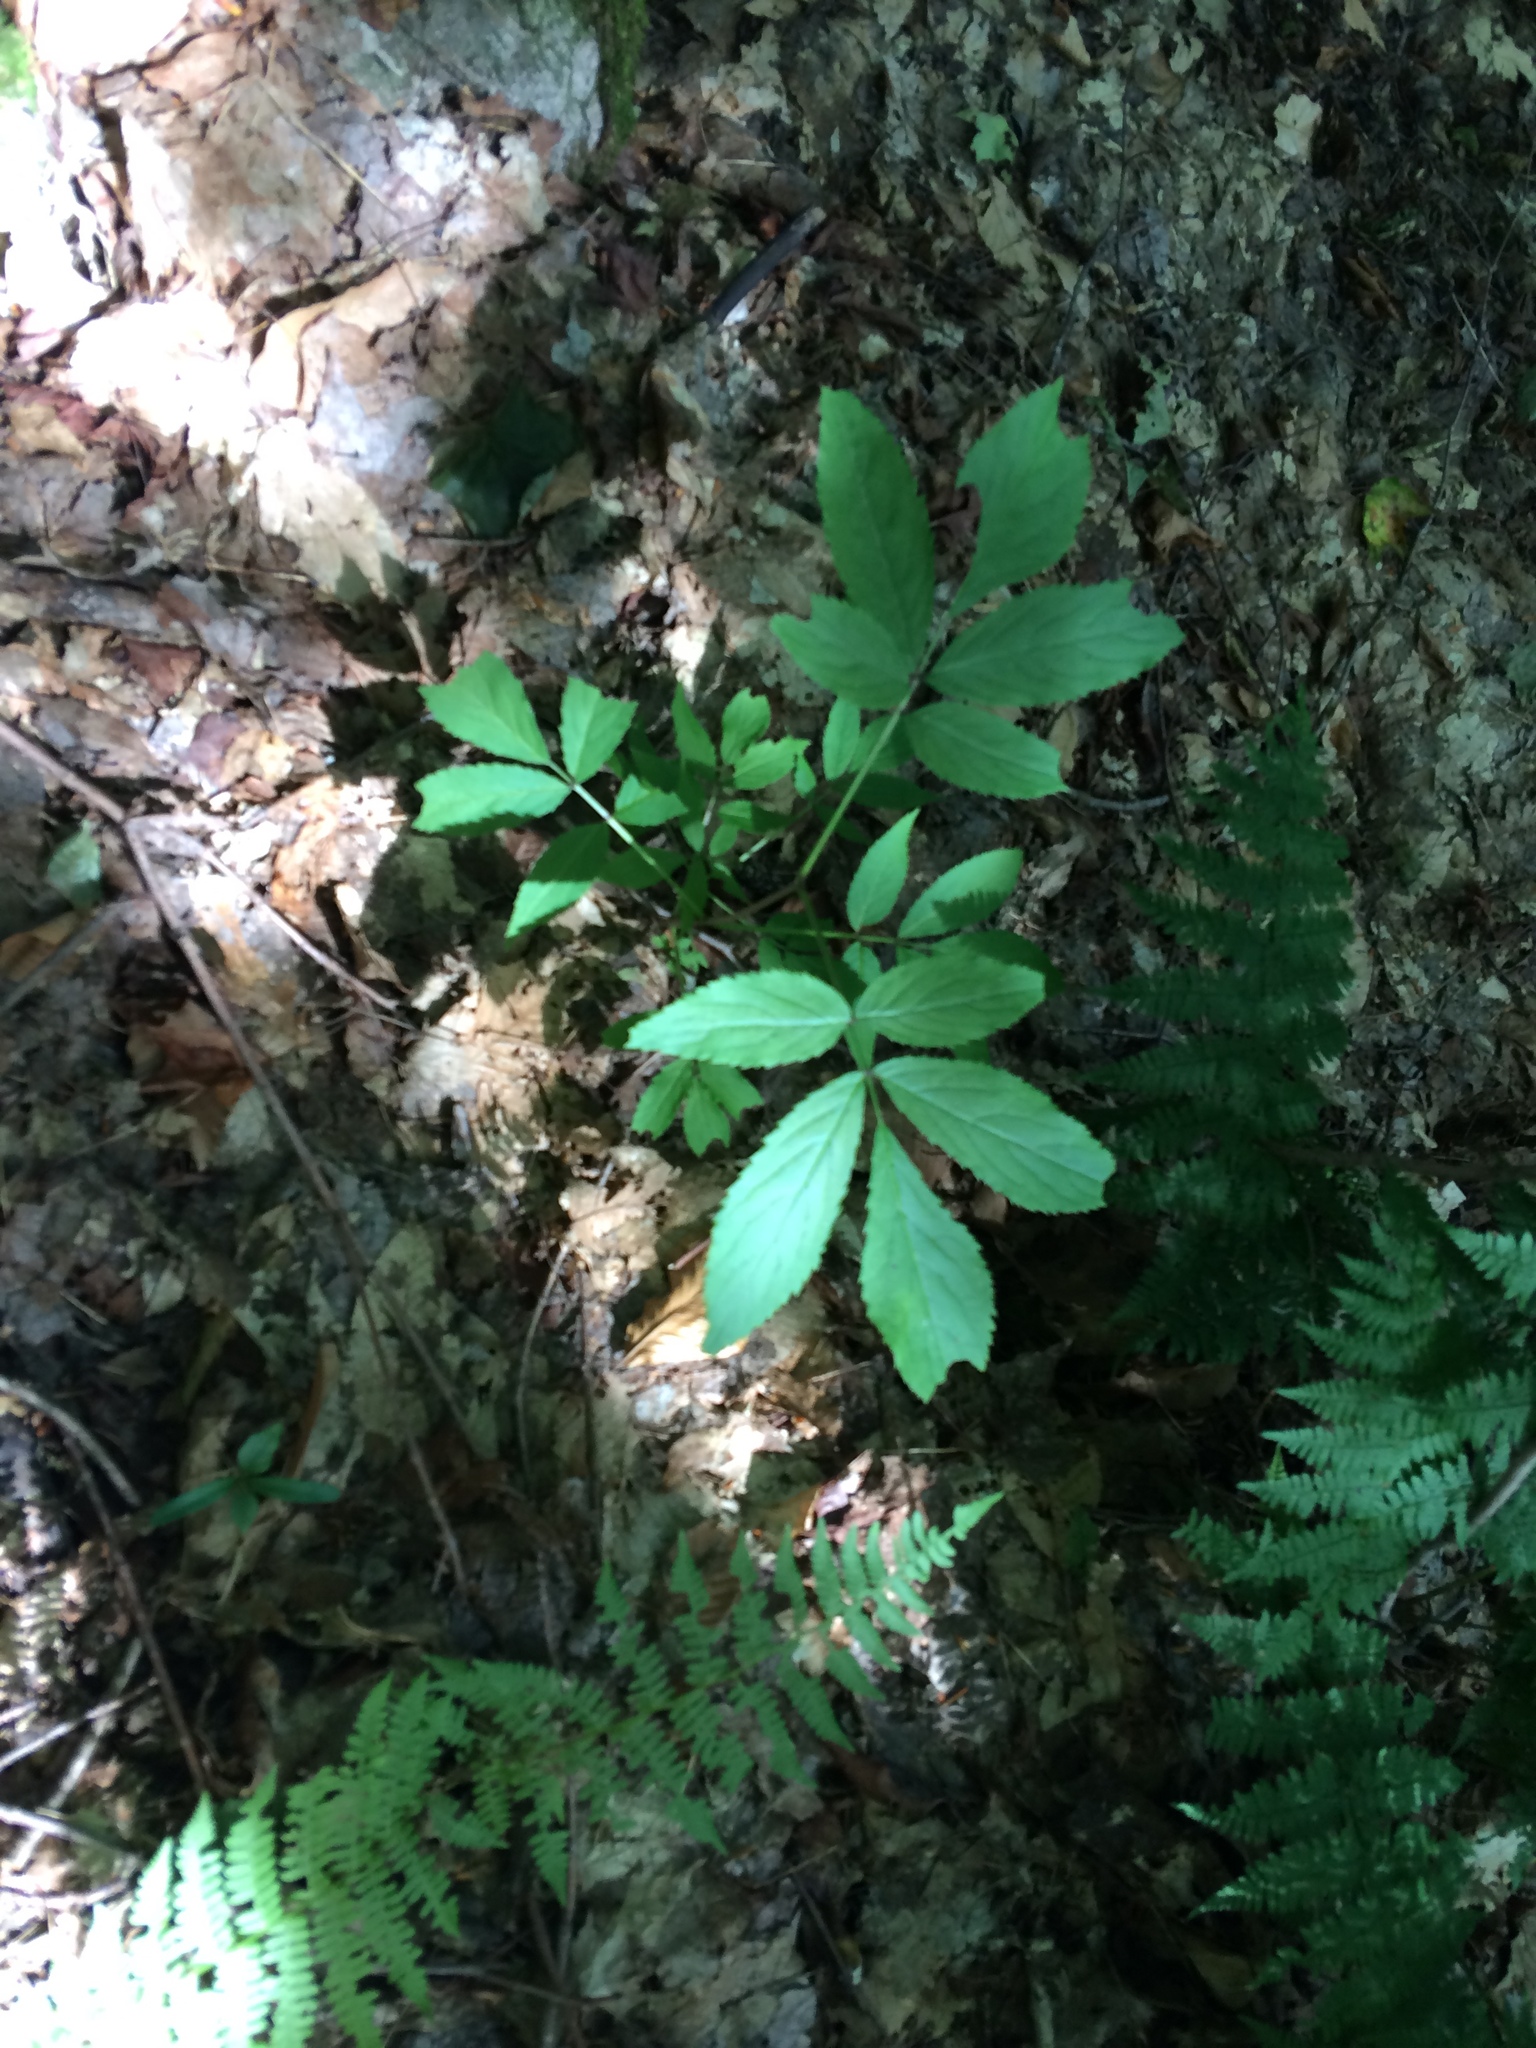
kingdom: Plantae
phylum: Tracheophyta
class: Magnoliopsida
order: Dipsacales
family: Viburnaceae
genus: Sambucus
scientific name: Sambucus racemosa
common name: Red-berried elder
